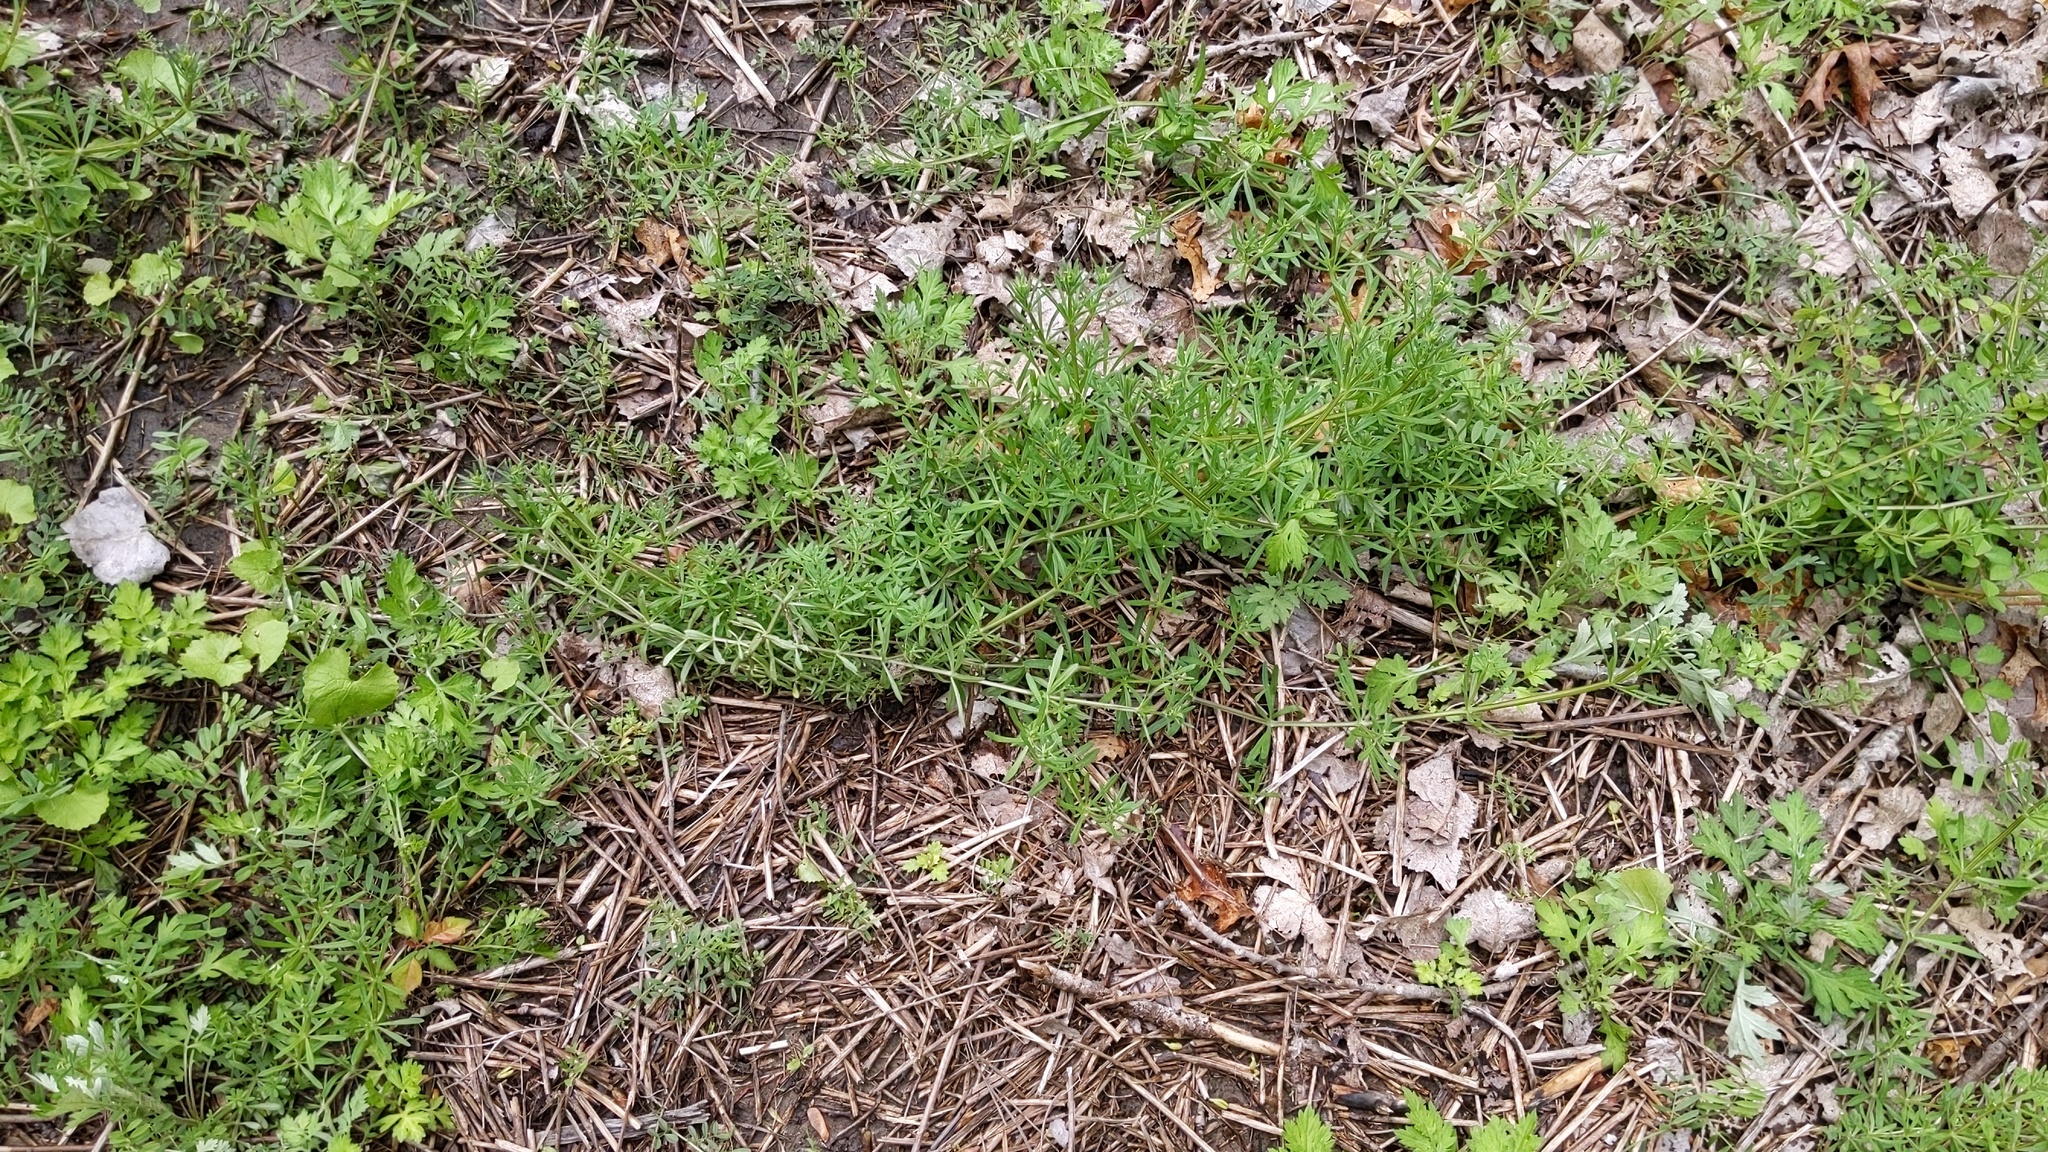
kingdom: Plantae
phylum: Tracheophyta
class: Magnoliopsida
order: Gentianales
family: Rubiaceae
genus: Galium
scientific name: Galium aparine
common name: Cleavers
